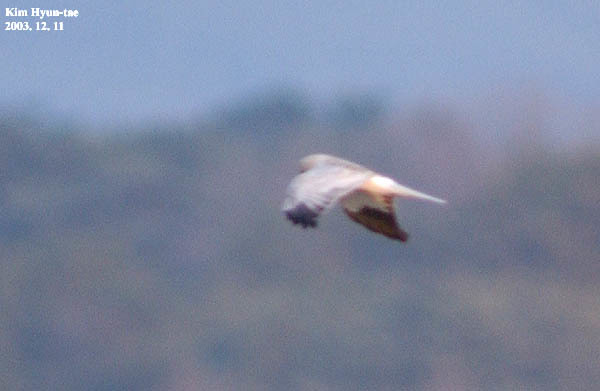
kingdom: Animalia
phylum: Chordata
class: Aves
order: Accipitriformes
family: Accipitridae
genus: Circus
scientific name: Circus cyaneus
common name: Hen harrier
